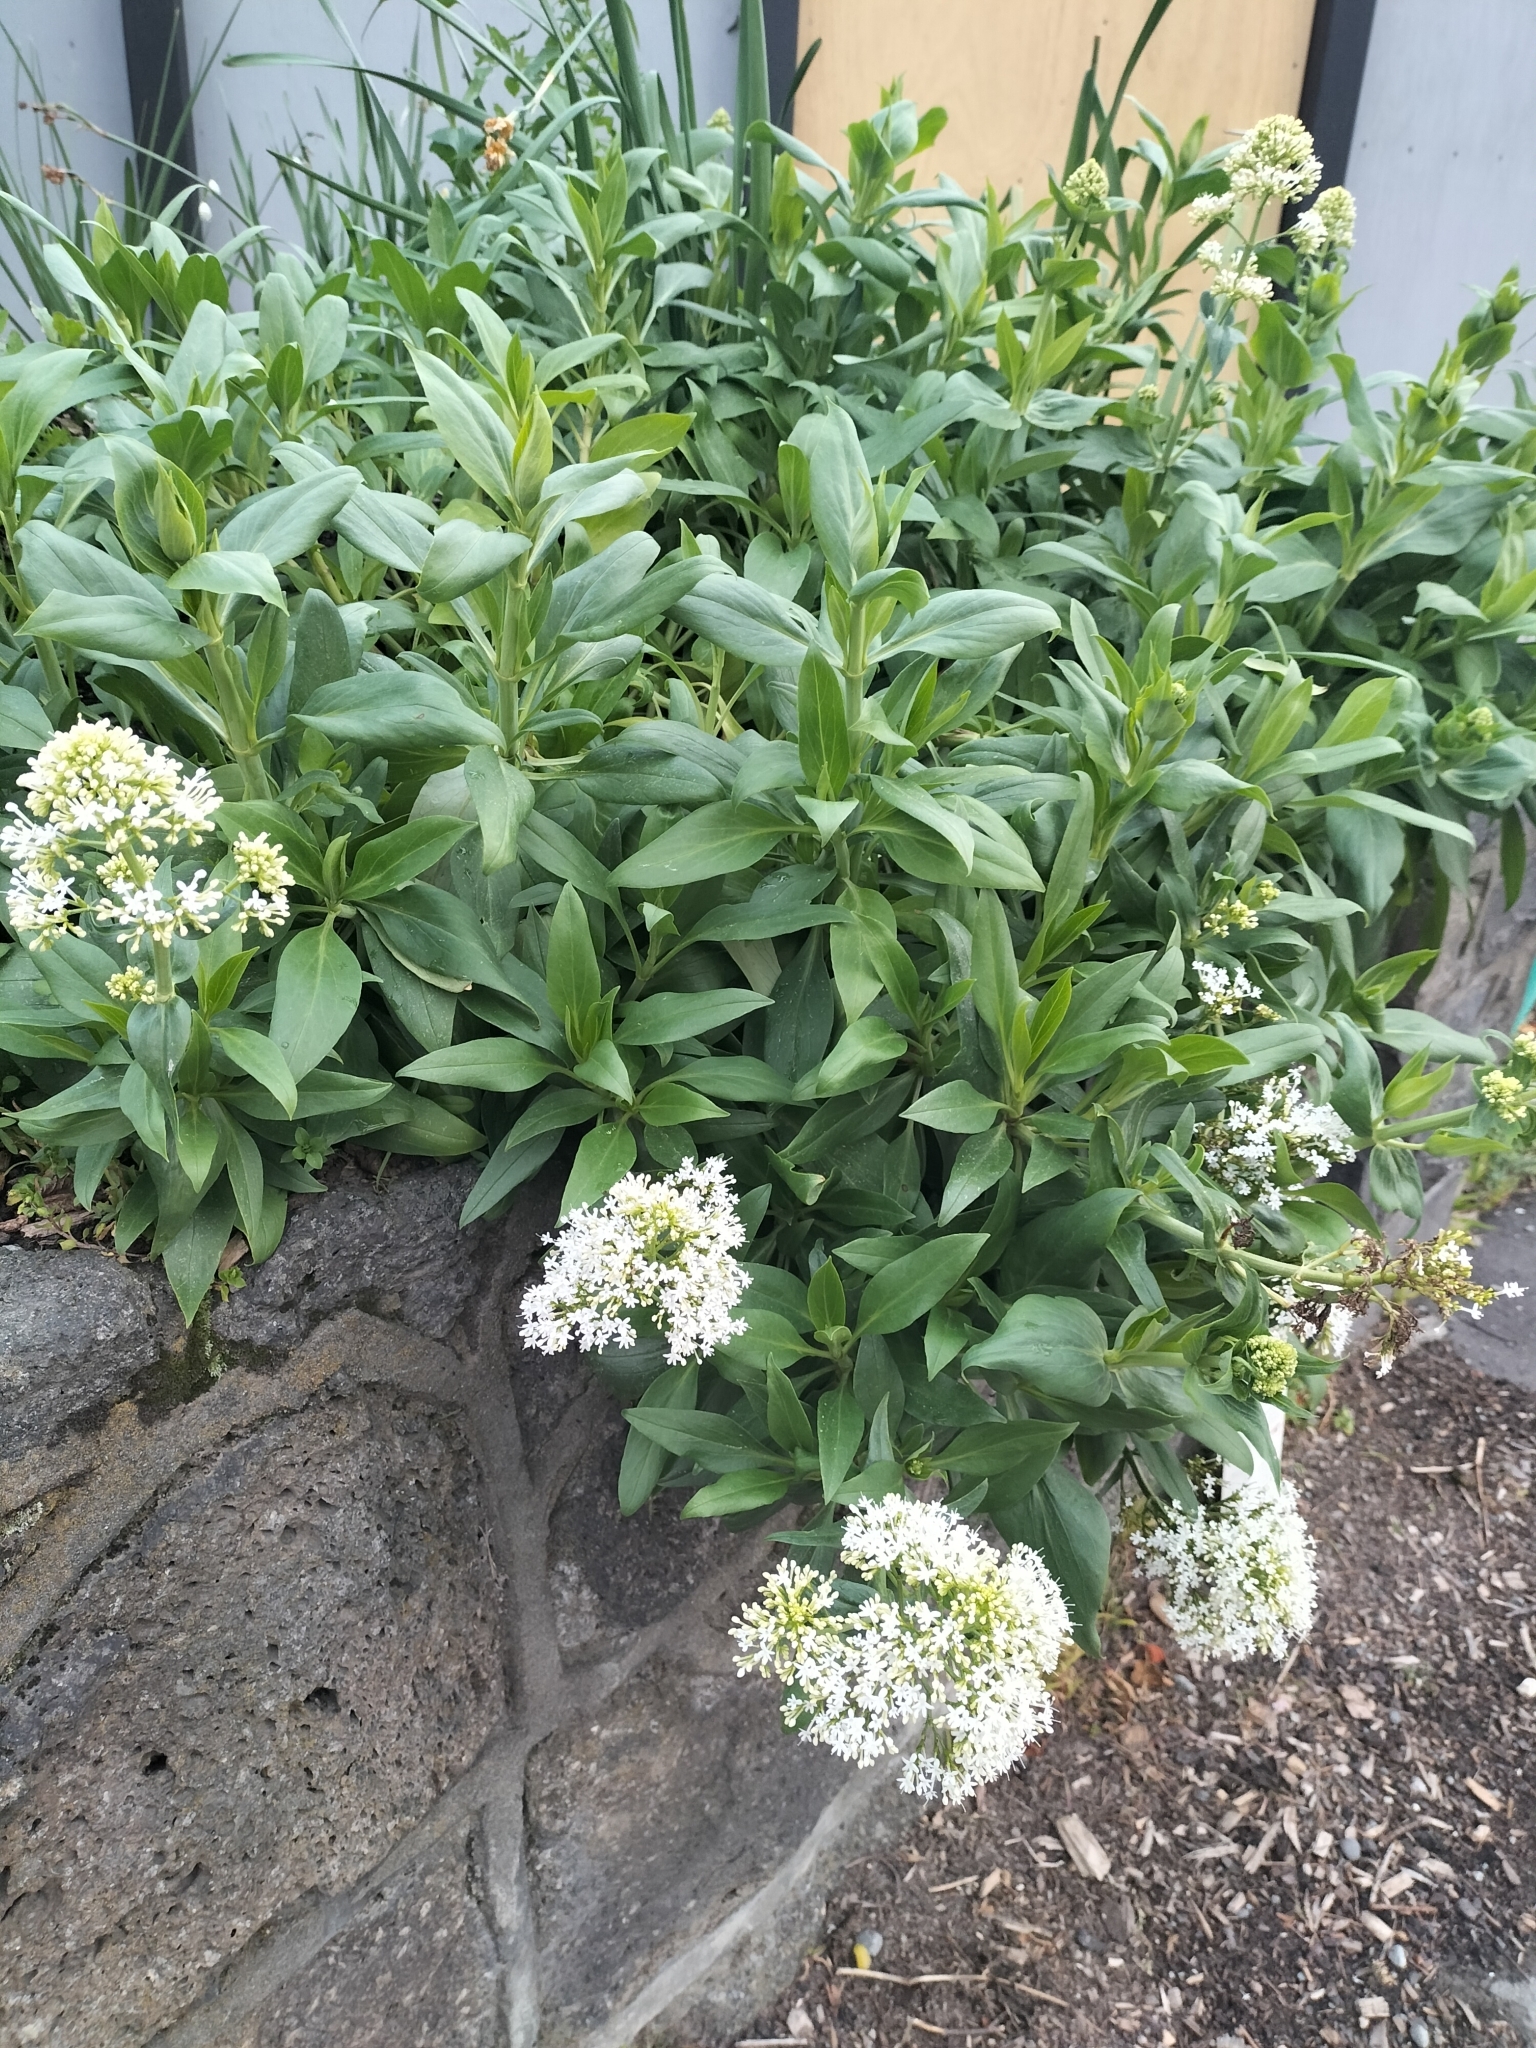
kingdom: Plantae
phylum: Tracheophyta
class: Magnoliopsida
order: Dipsacales
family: Caprifoliaceae
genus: Centranthus
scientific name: Centranthus ruber
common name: Red valerian
